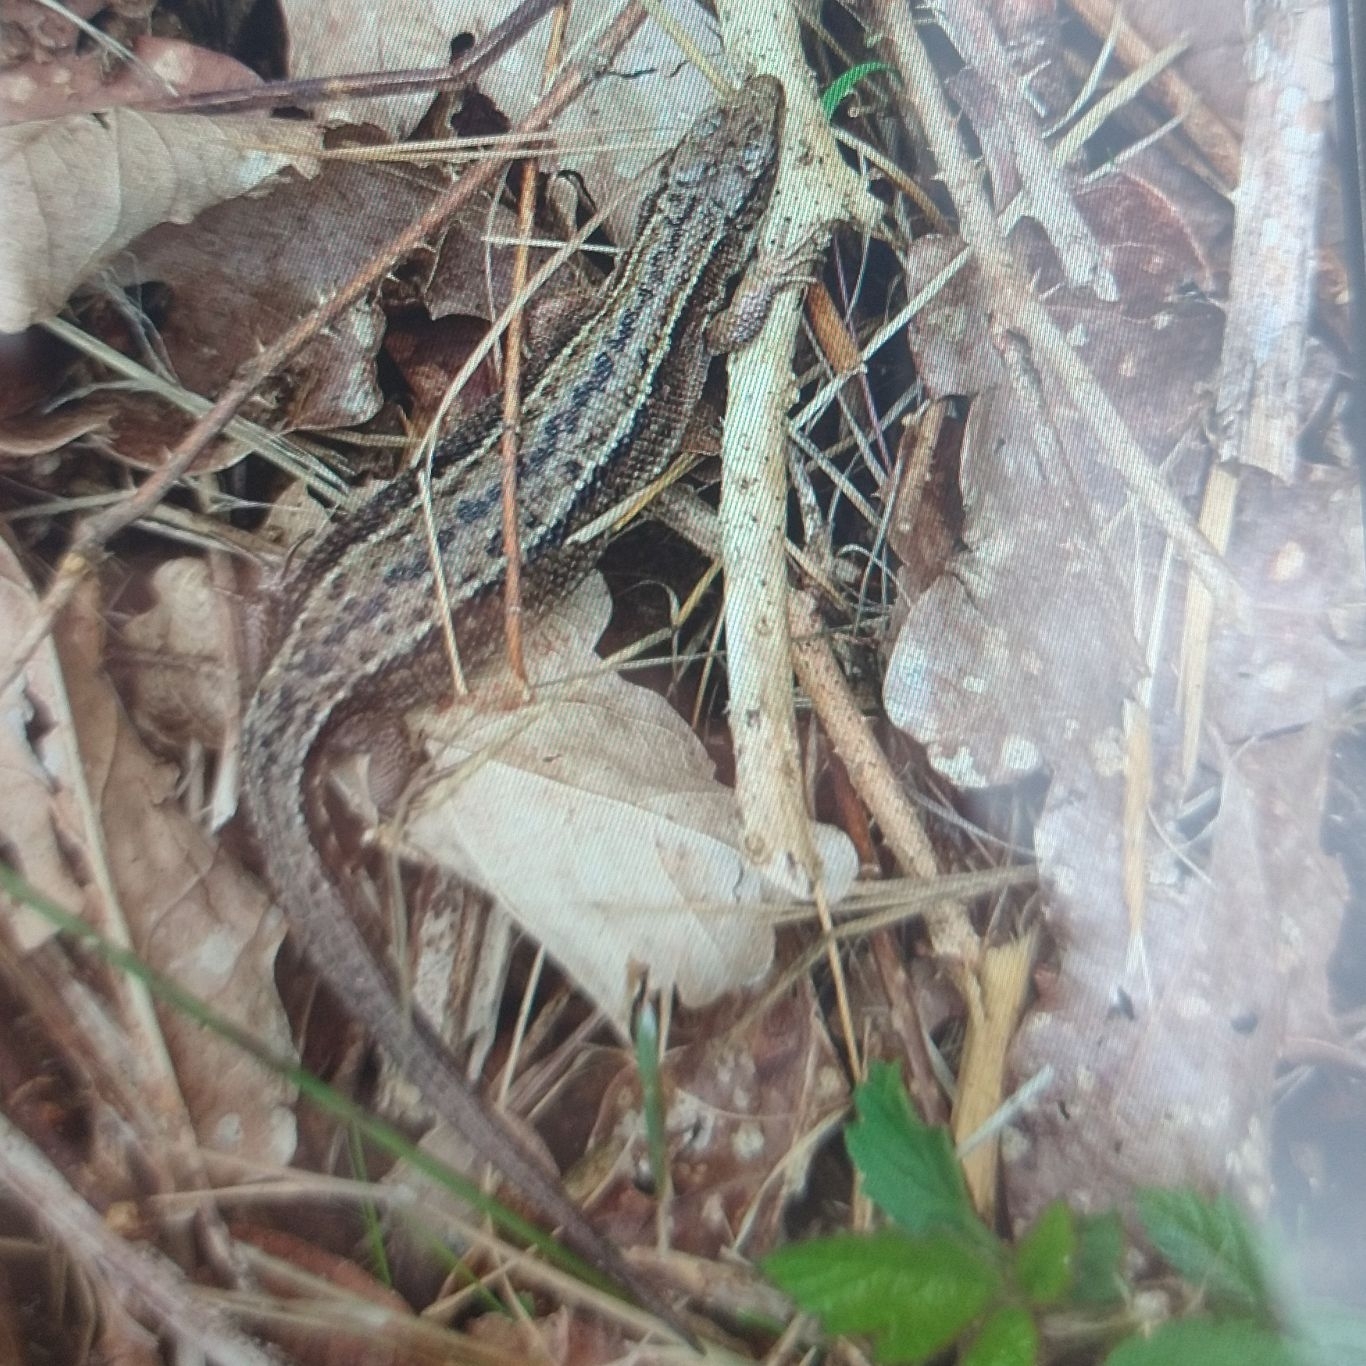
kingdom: Animalia
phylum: Chordata
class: Squamata
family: Lacertidae
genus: Zootoca
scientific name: Zootoca vivipara
